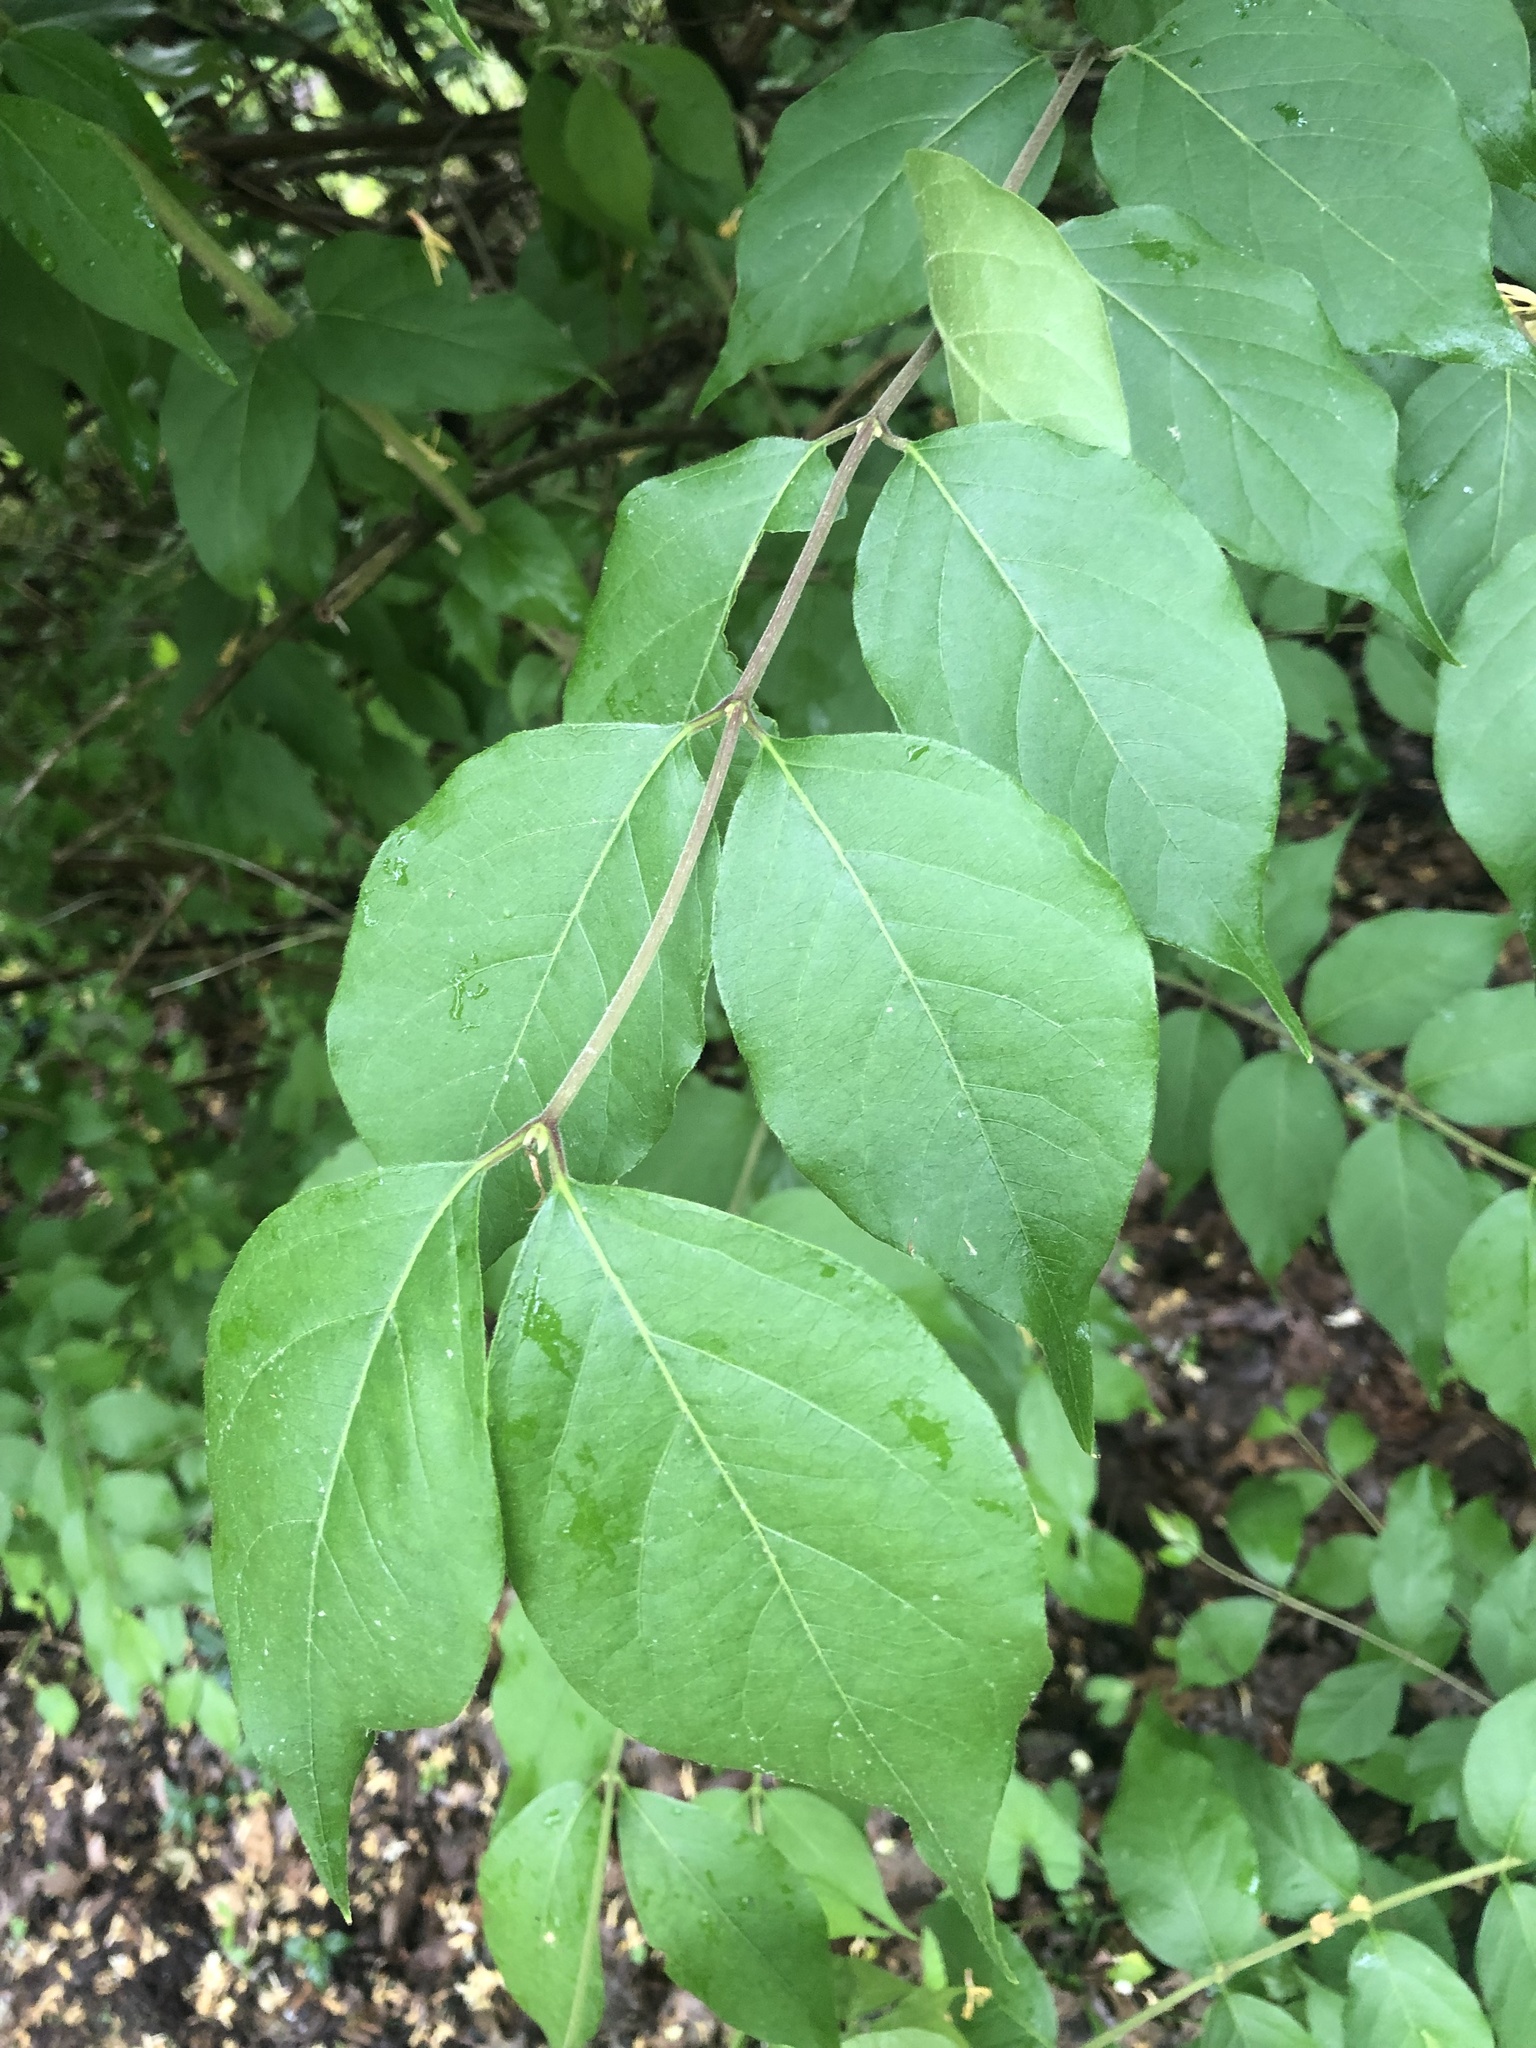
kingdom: Plantae
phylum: Tracheophyta
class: Magnoliopsida
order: Dipsacales
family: Caprifoliaceae
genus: Lonicera
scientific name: Lonicera maackii
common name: Amur honeysuckle
